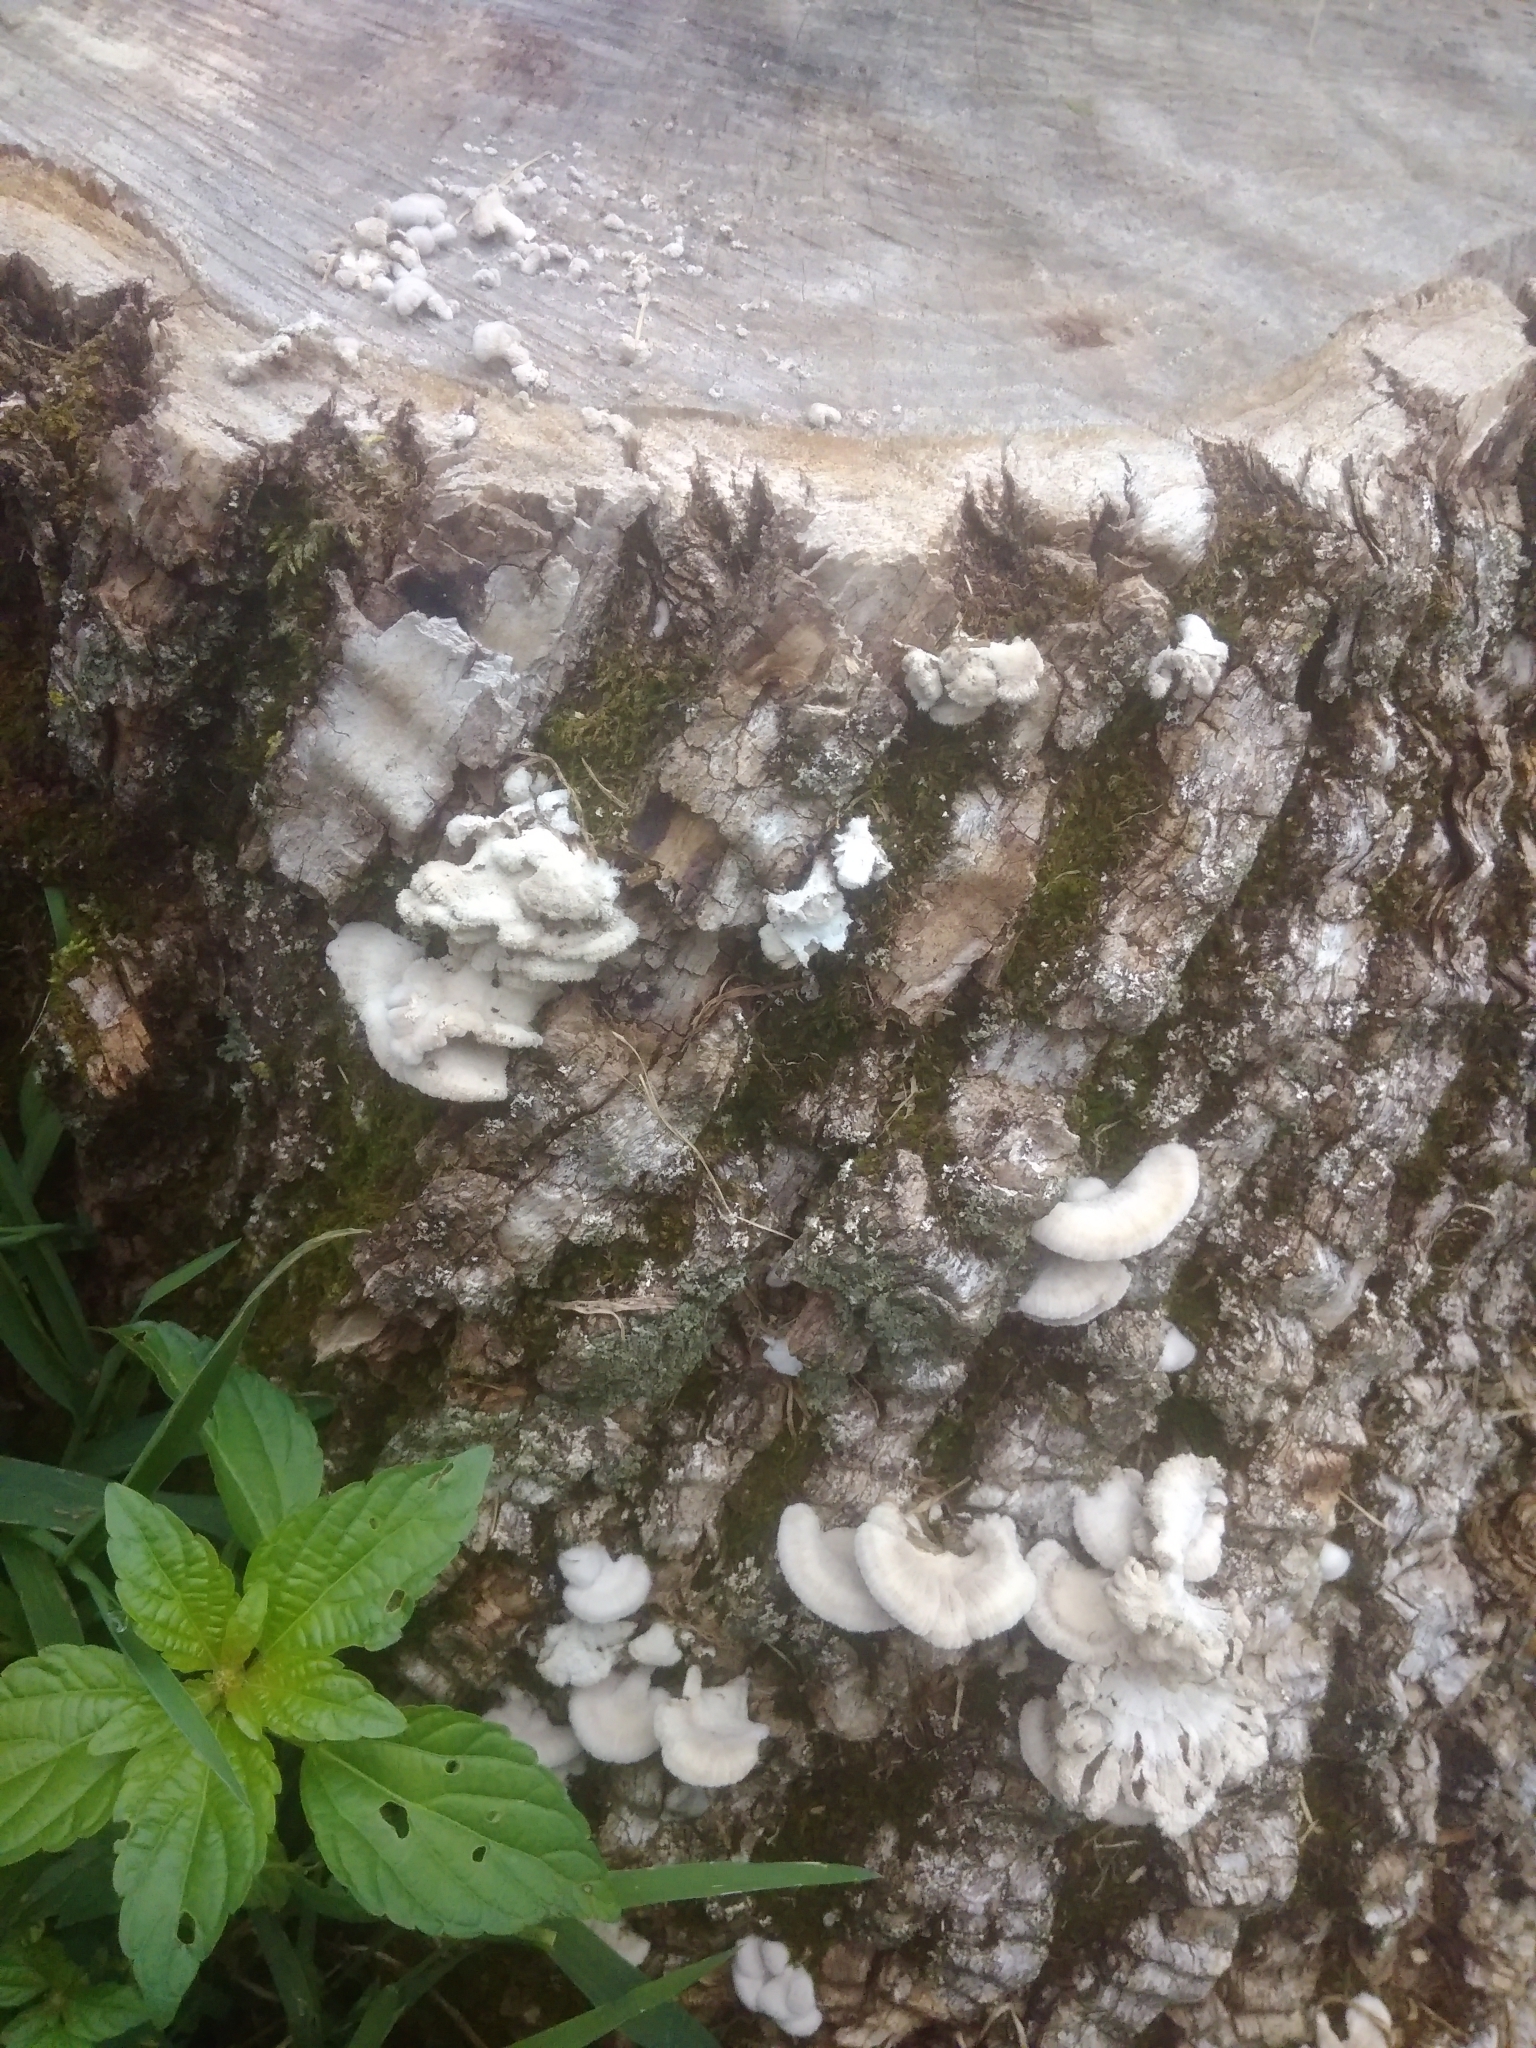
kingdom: Fungi
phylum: Basidiomycota
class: Agaricomycetes
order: Agaricales
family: Schizophyllaceae
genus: Schizophyllum
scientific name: Schizophyllum commune
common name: Common porecrust
